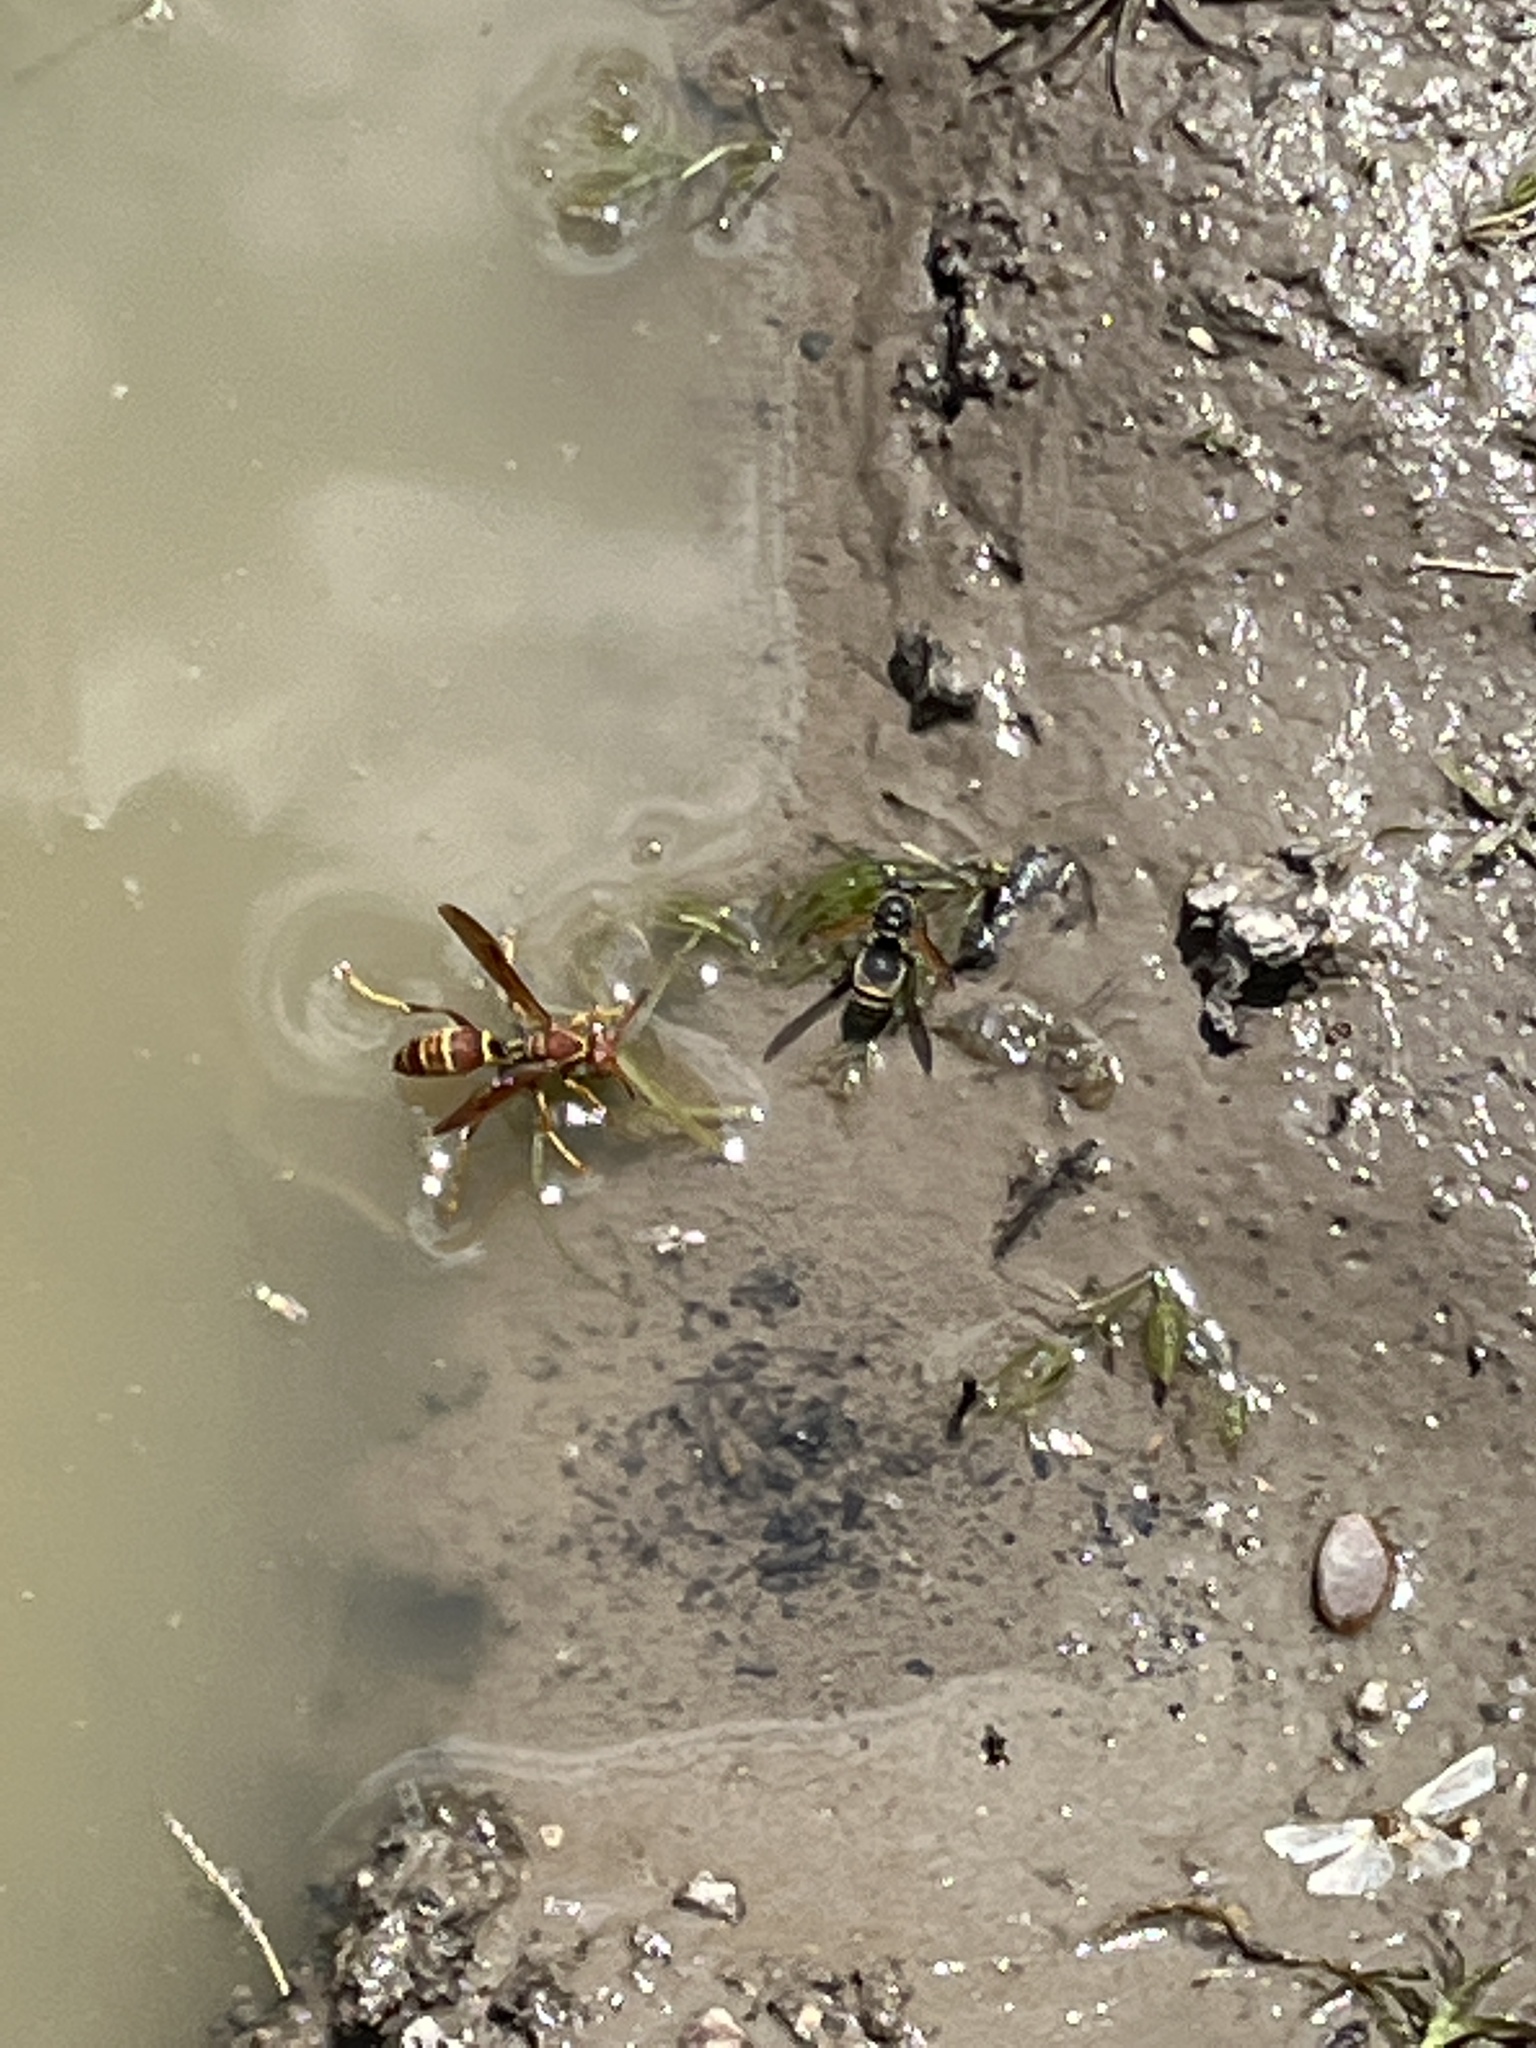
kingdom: Animalia
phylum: Arthropoda
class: Insecta
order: Hymenoptera
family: Eumenidae
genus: Polistes
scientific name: Polistes dorsalis
